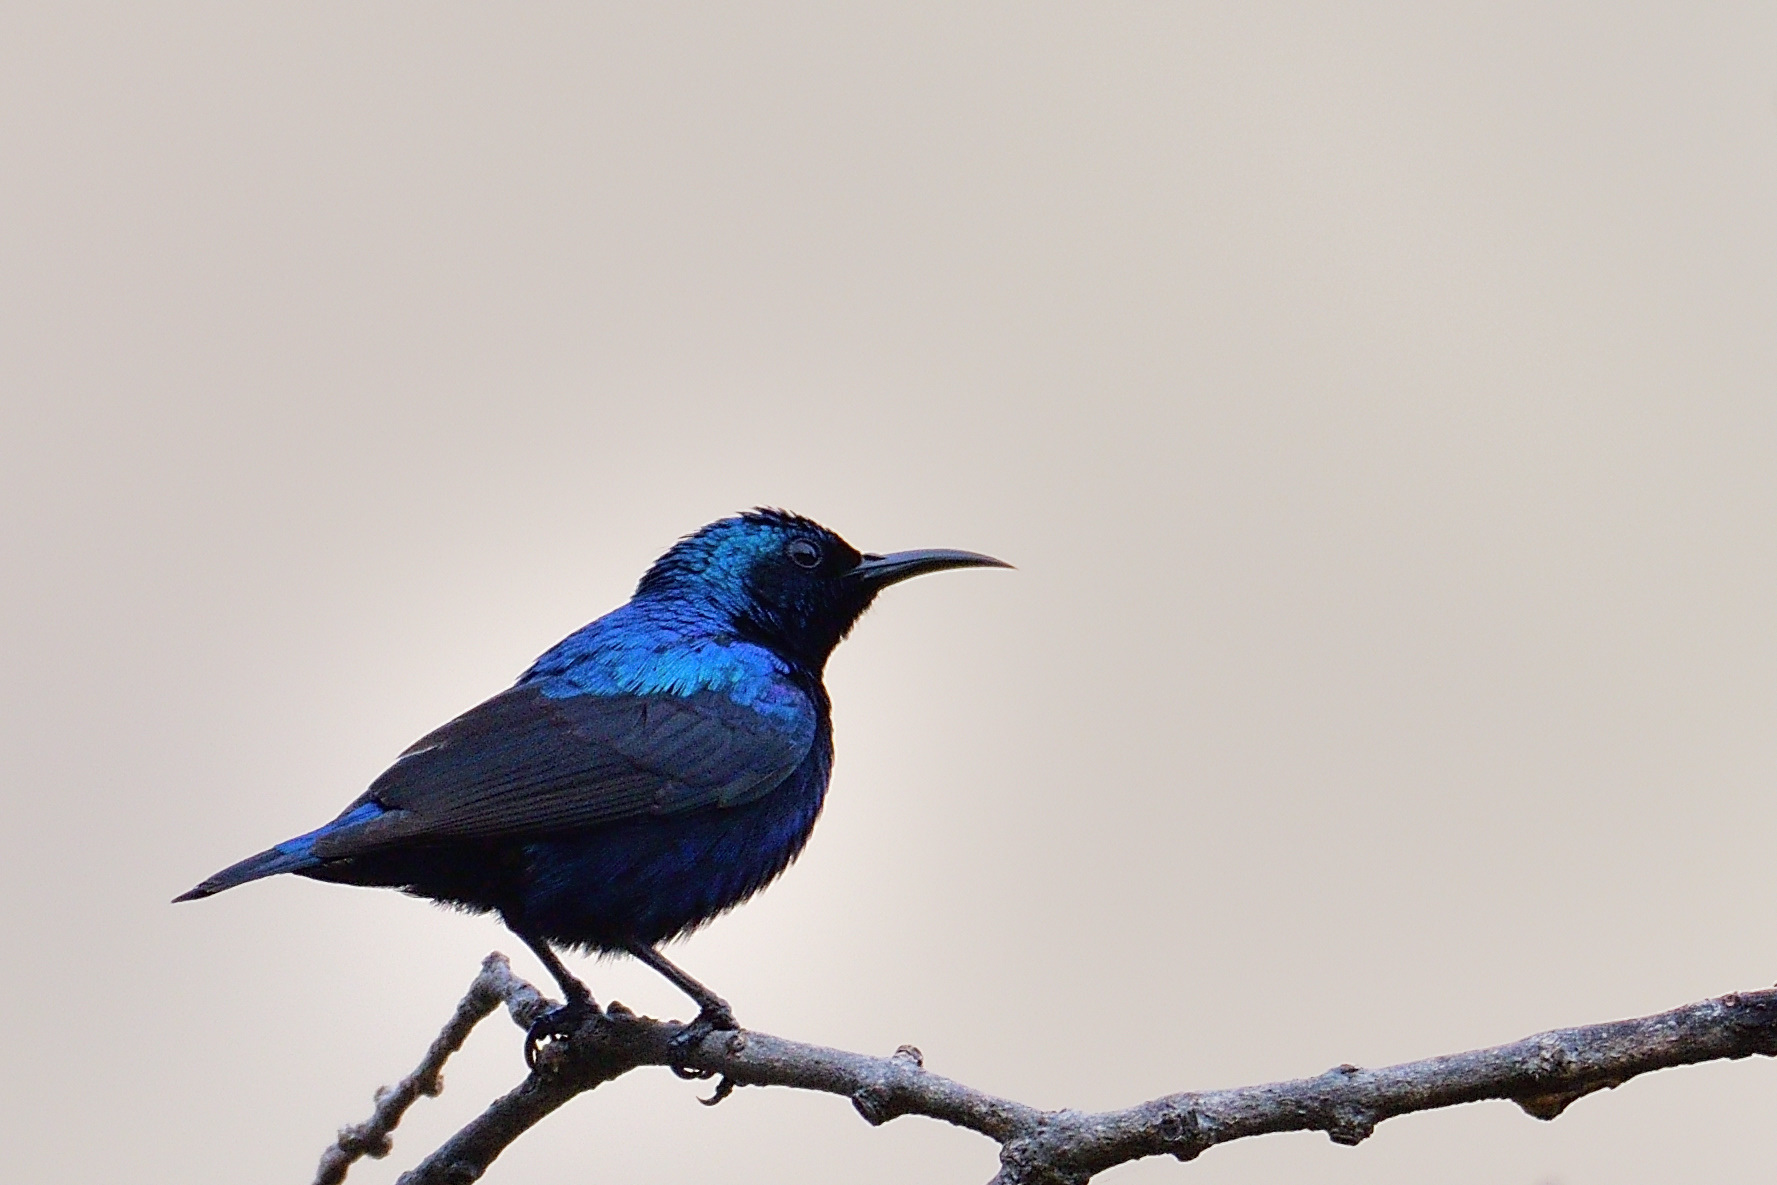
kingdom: Animalia
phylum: Chordata
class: Aves
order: Passeriformes
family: Nectariniidae
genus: Cinnyris
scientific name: Cinnyris asiaticus
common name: Purple sunbird
